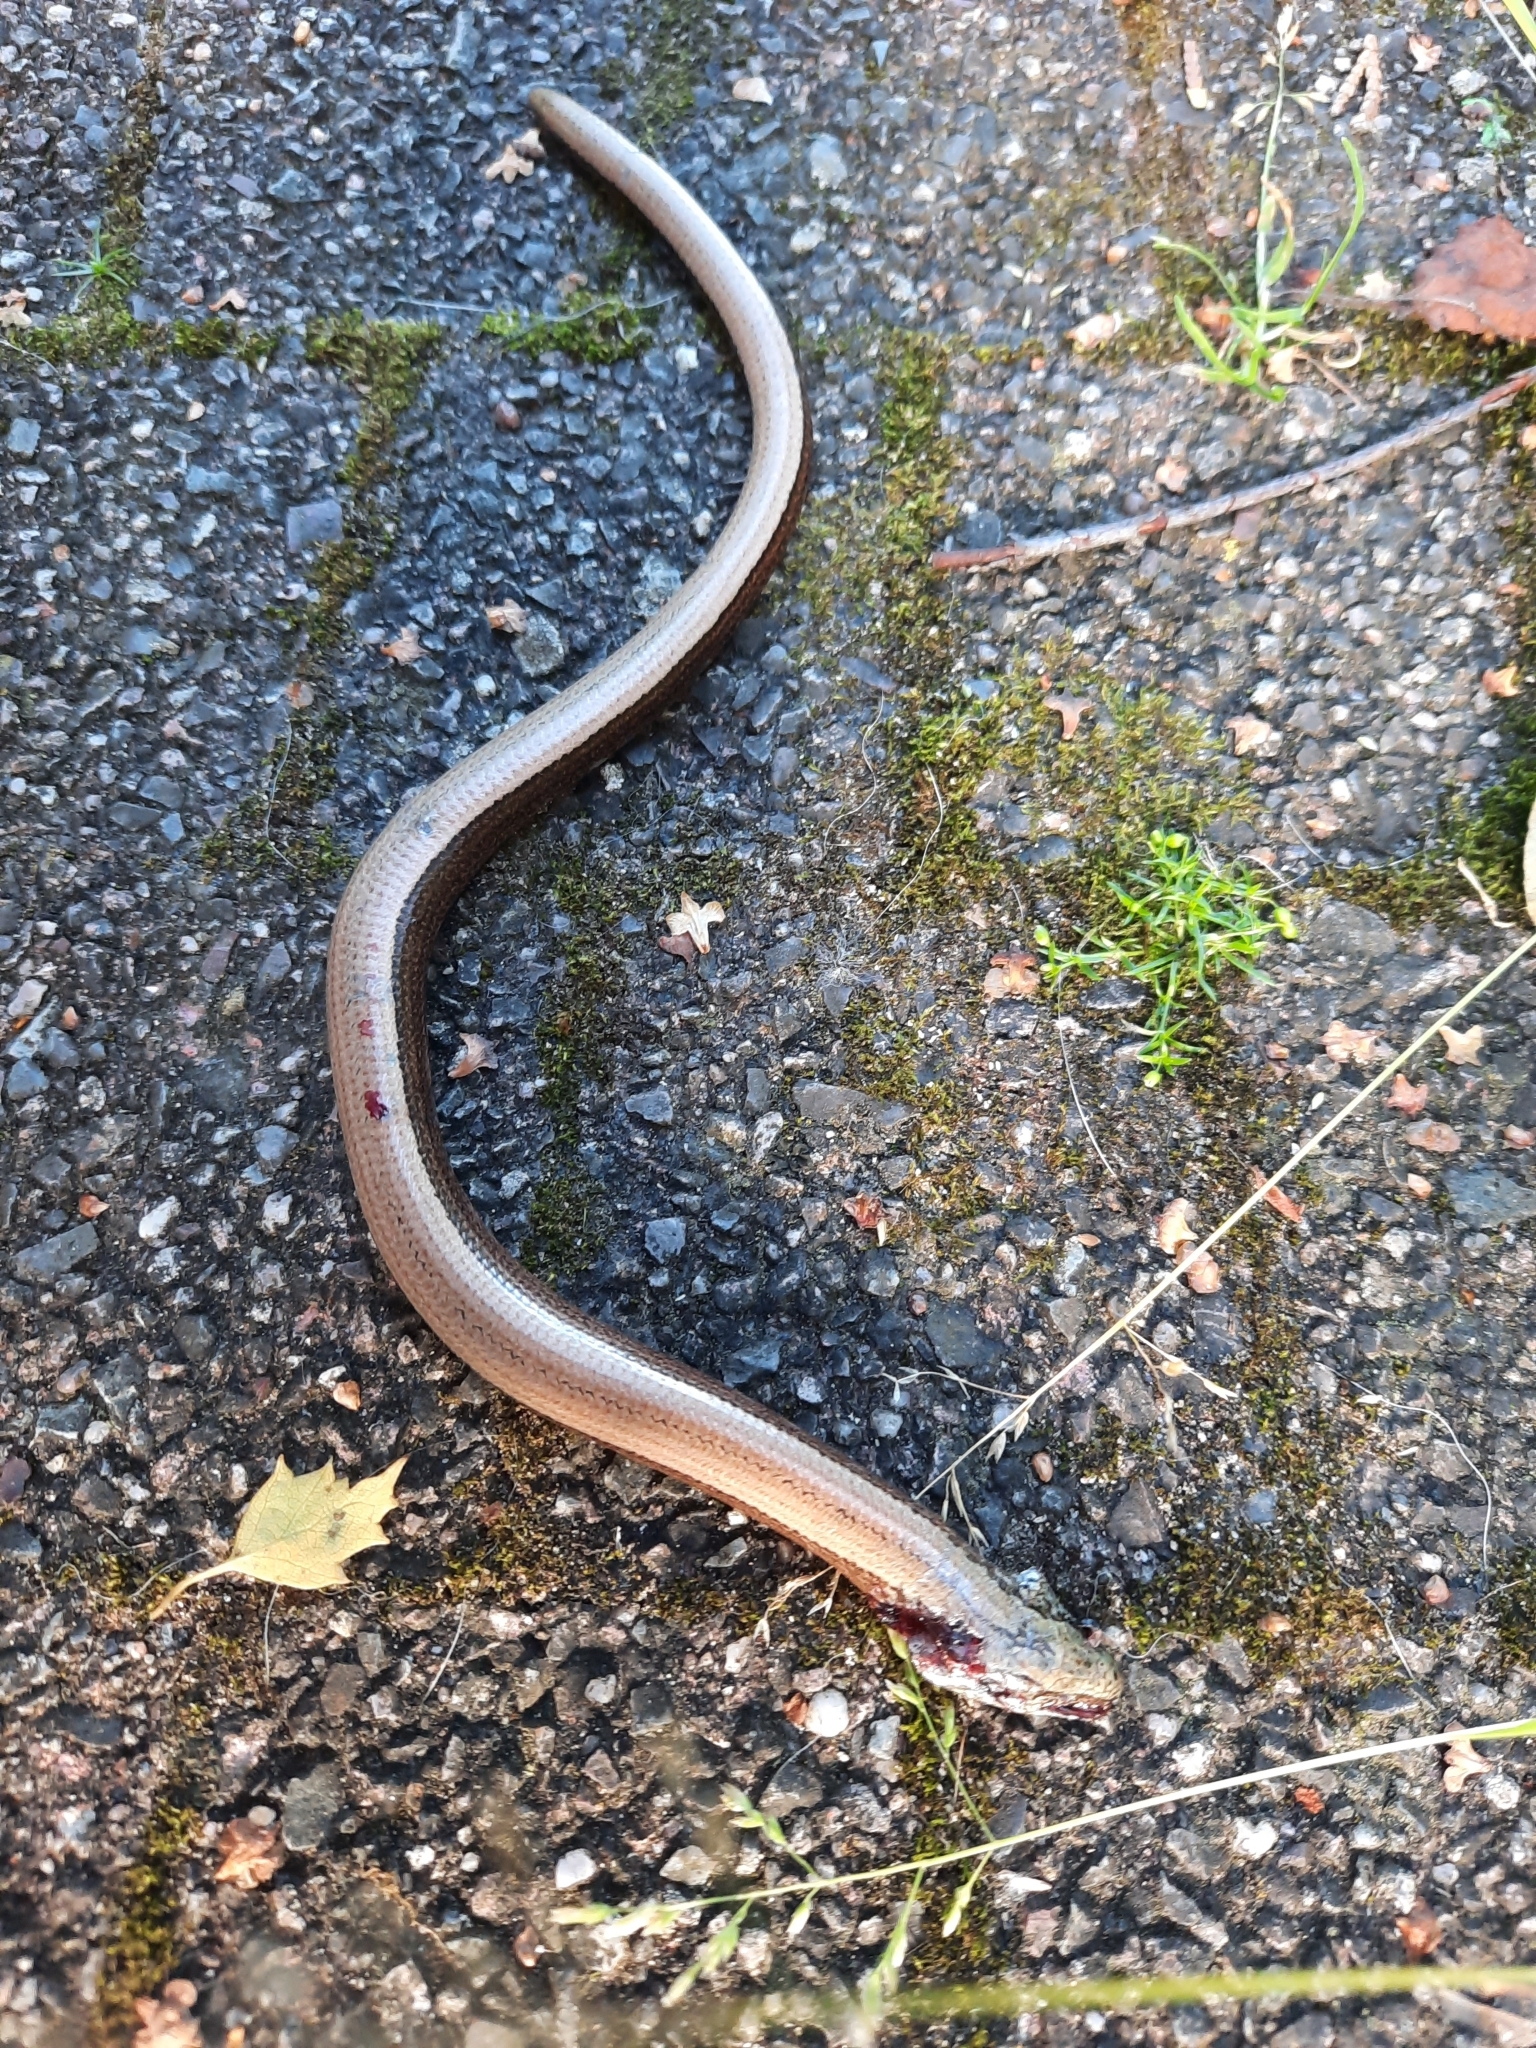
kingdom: Animalia
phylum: Chordata
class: Squamata
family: Anguidae
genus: Anguis
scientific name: Anguis fragilis
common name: Slow worm
